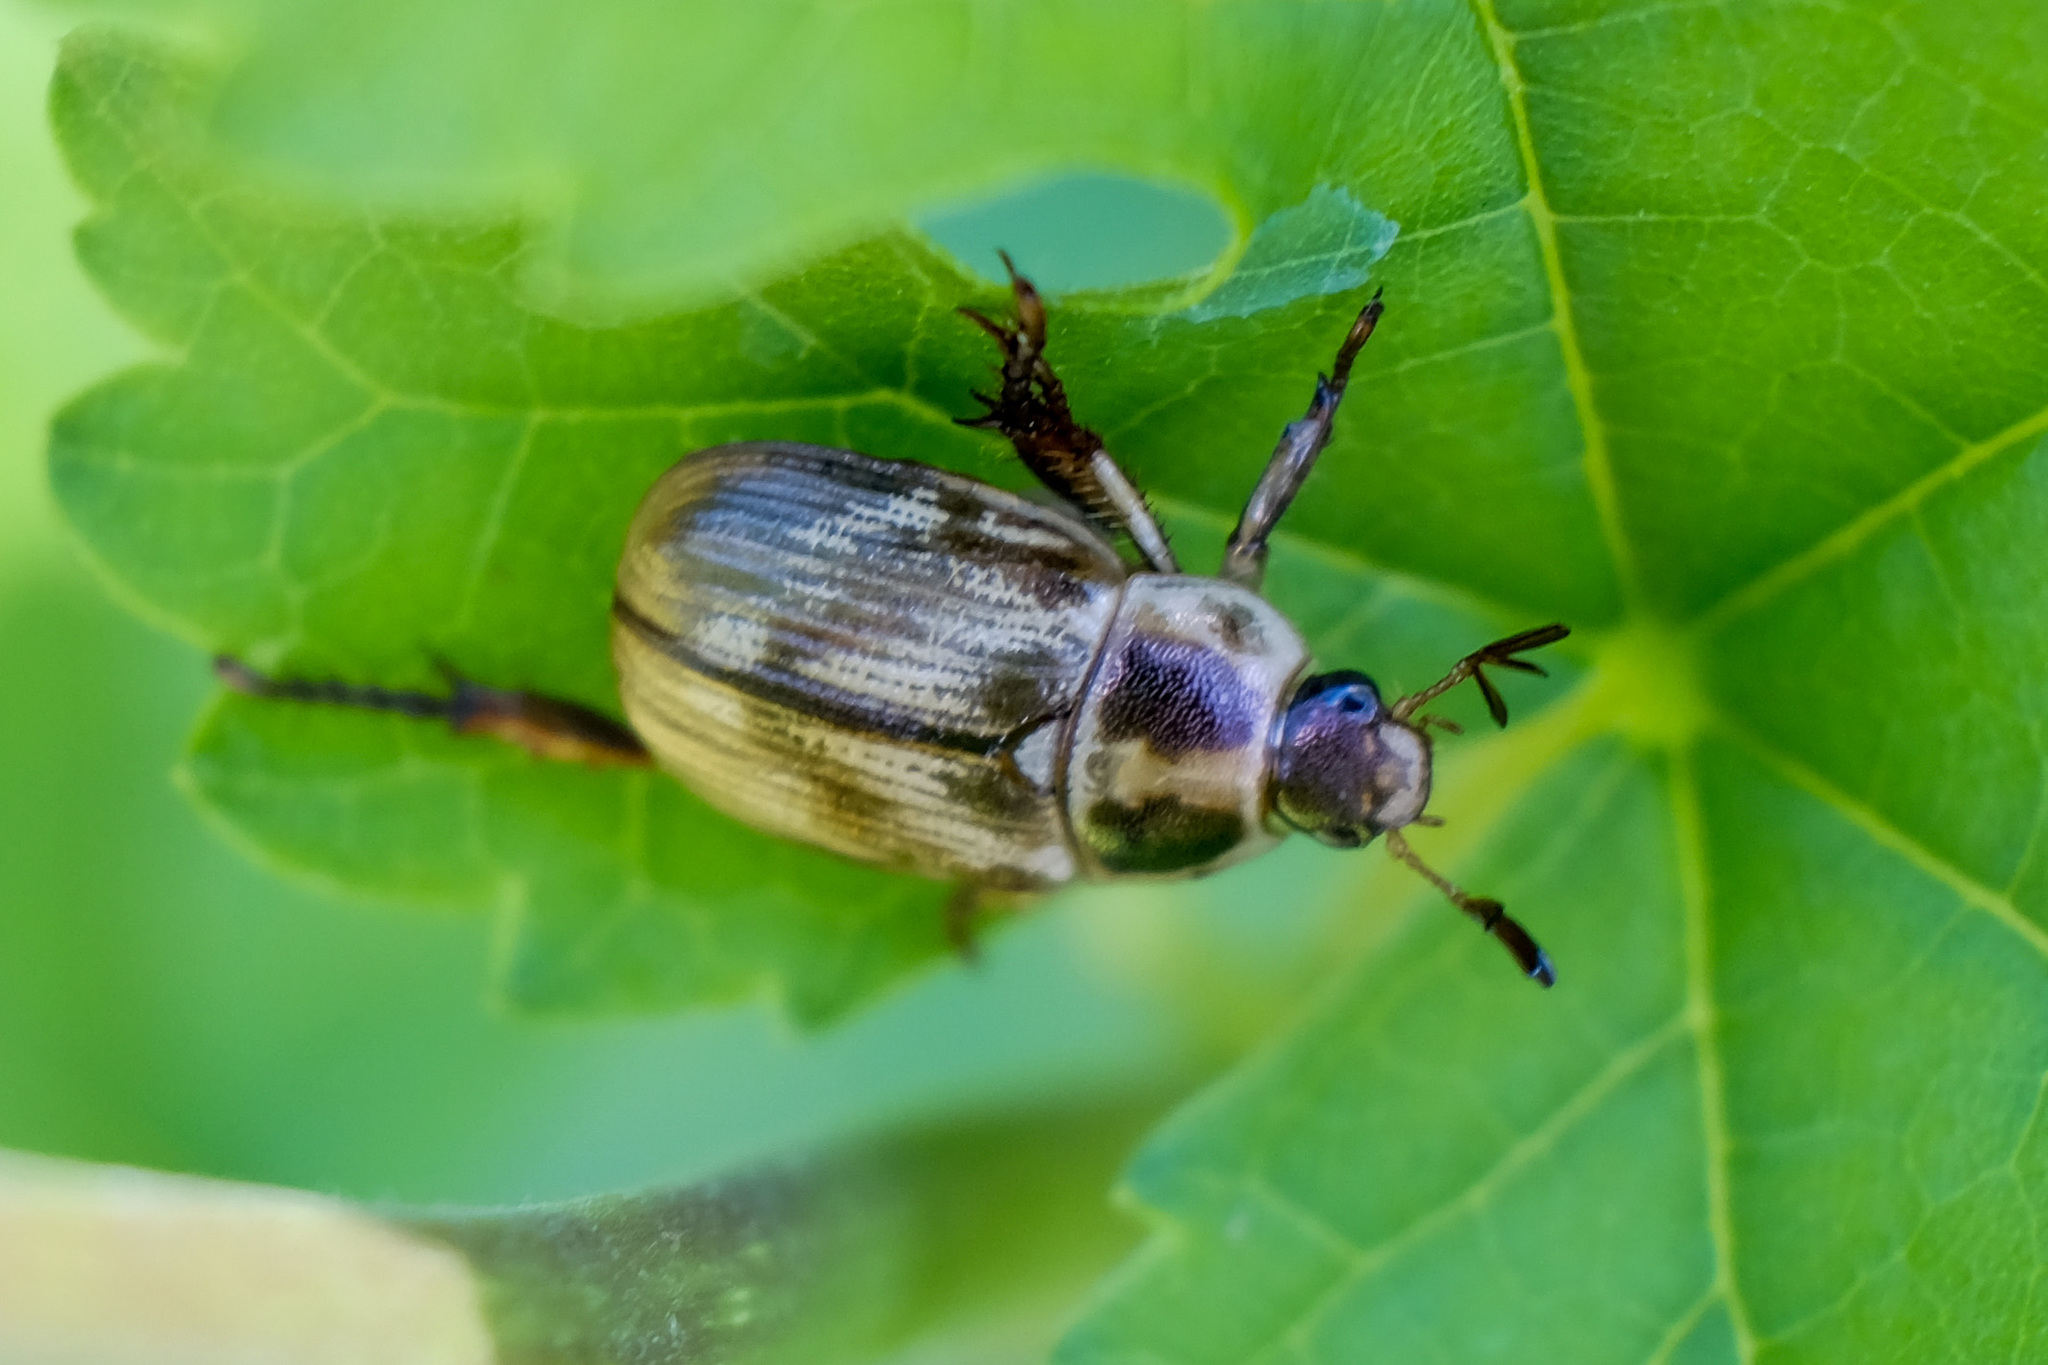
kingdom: Animalia
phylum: Arthropoda
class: Insecta
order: Coleoptera
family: Scarabaeidae
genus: Exomala
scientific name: Exomala orientalis
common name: Oriental beetle
